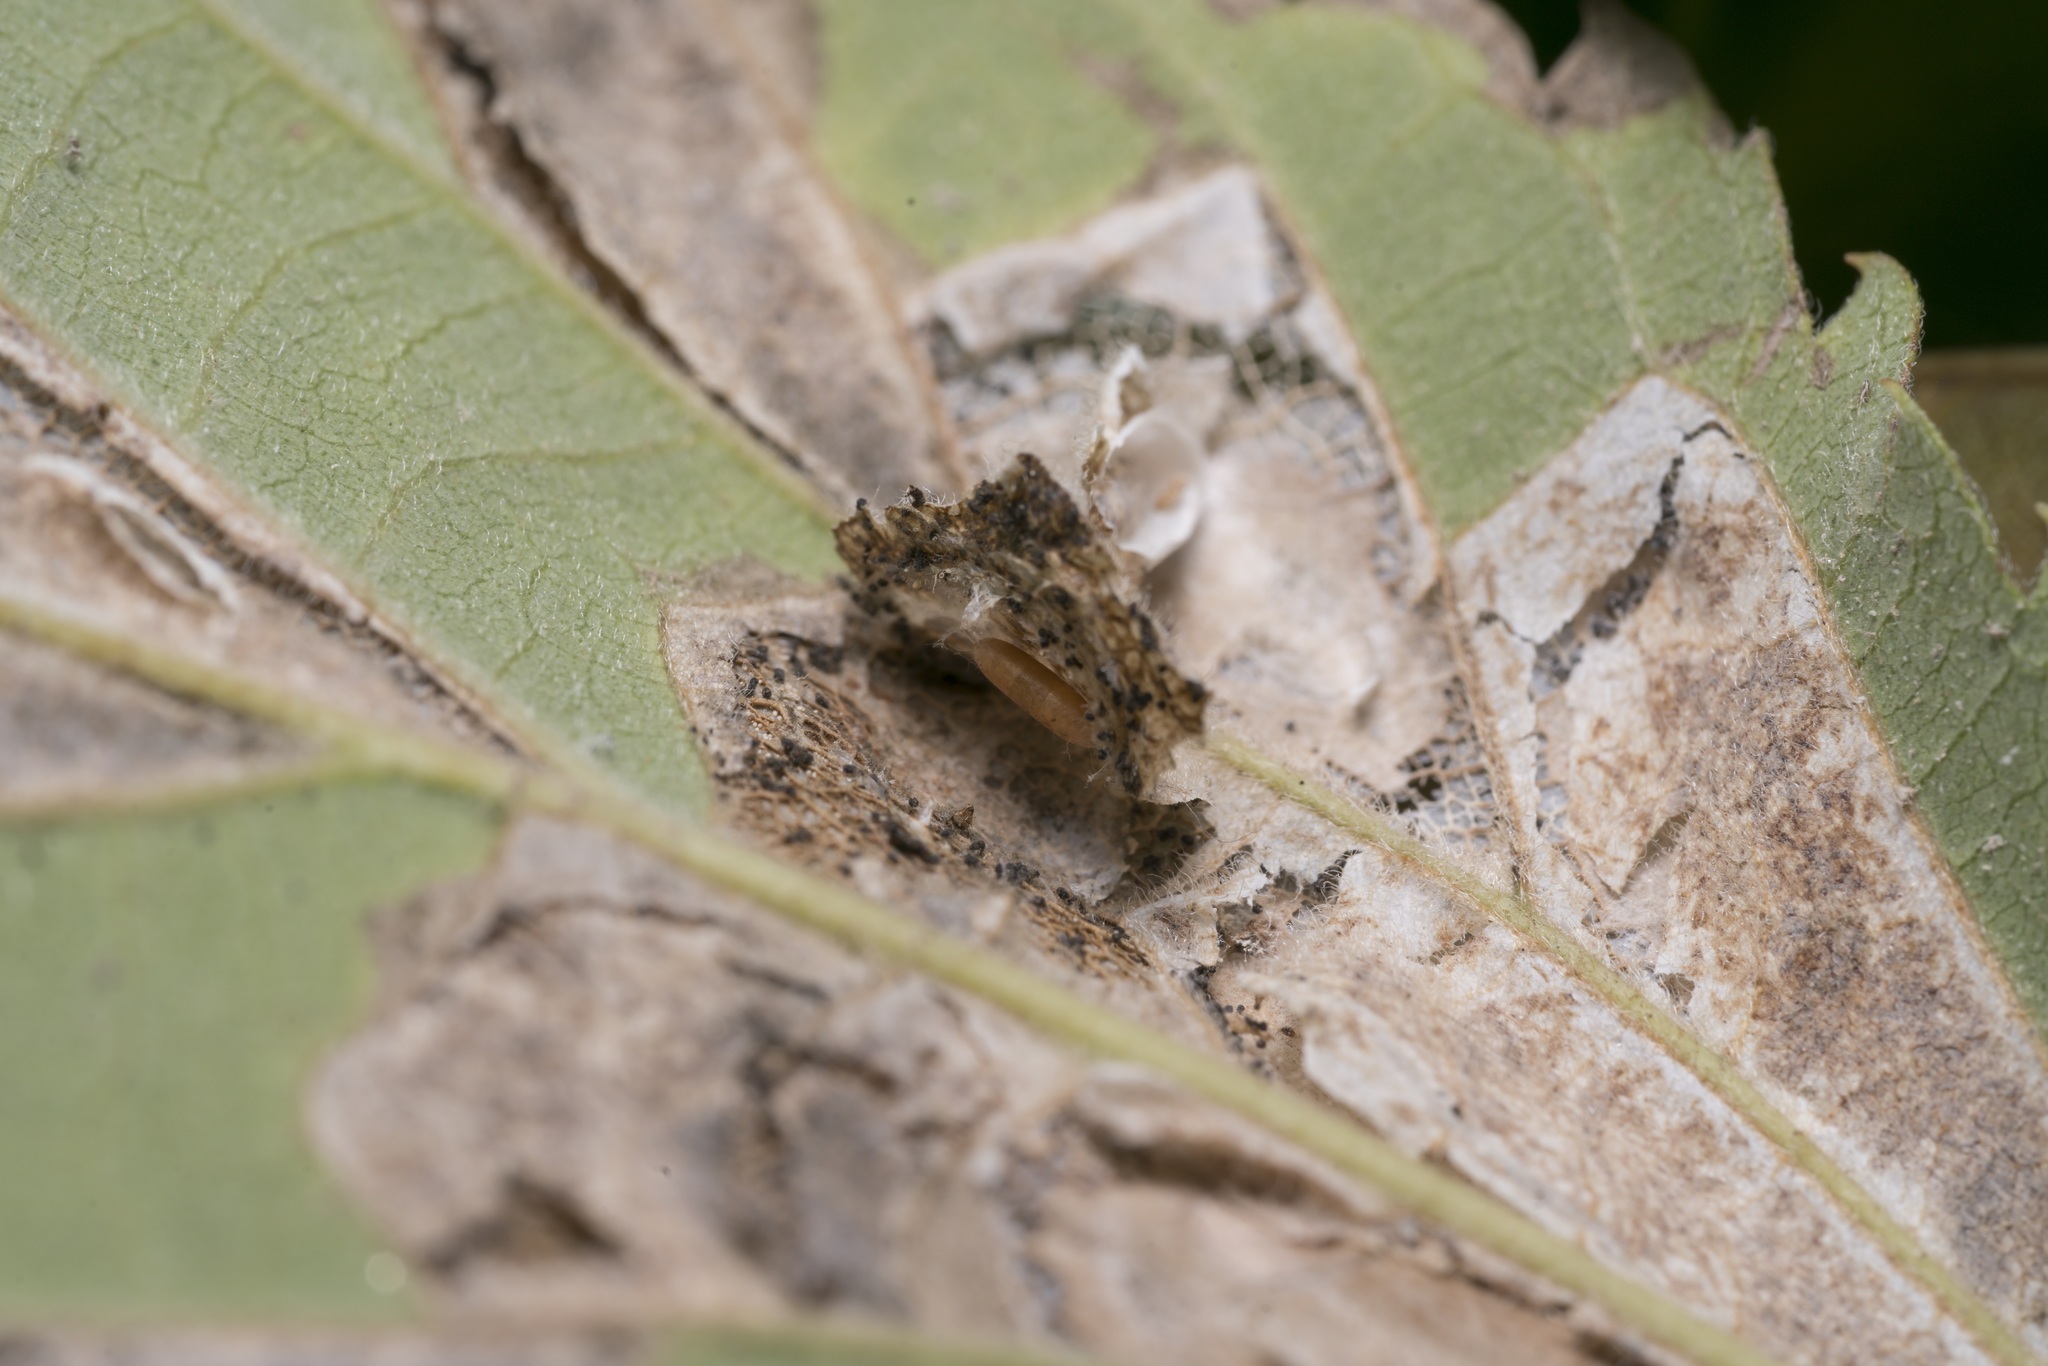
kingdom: Animalia
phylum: Arthropoda
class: Insecta
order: Lepidoptera
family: Gracillariidae
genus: Phyllonorycter
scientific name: Phyllonorycter millierella
